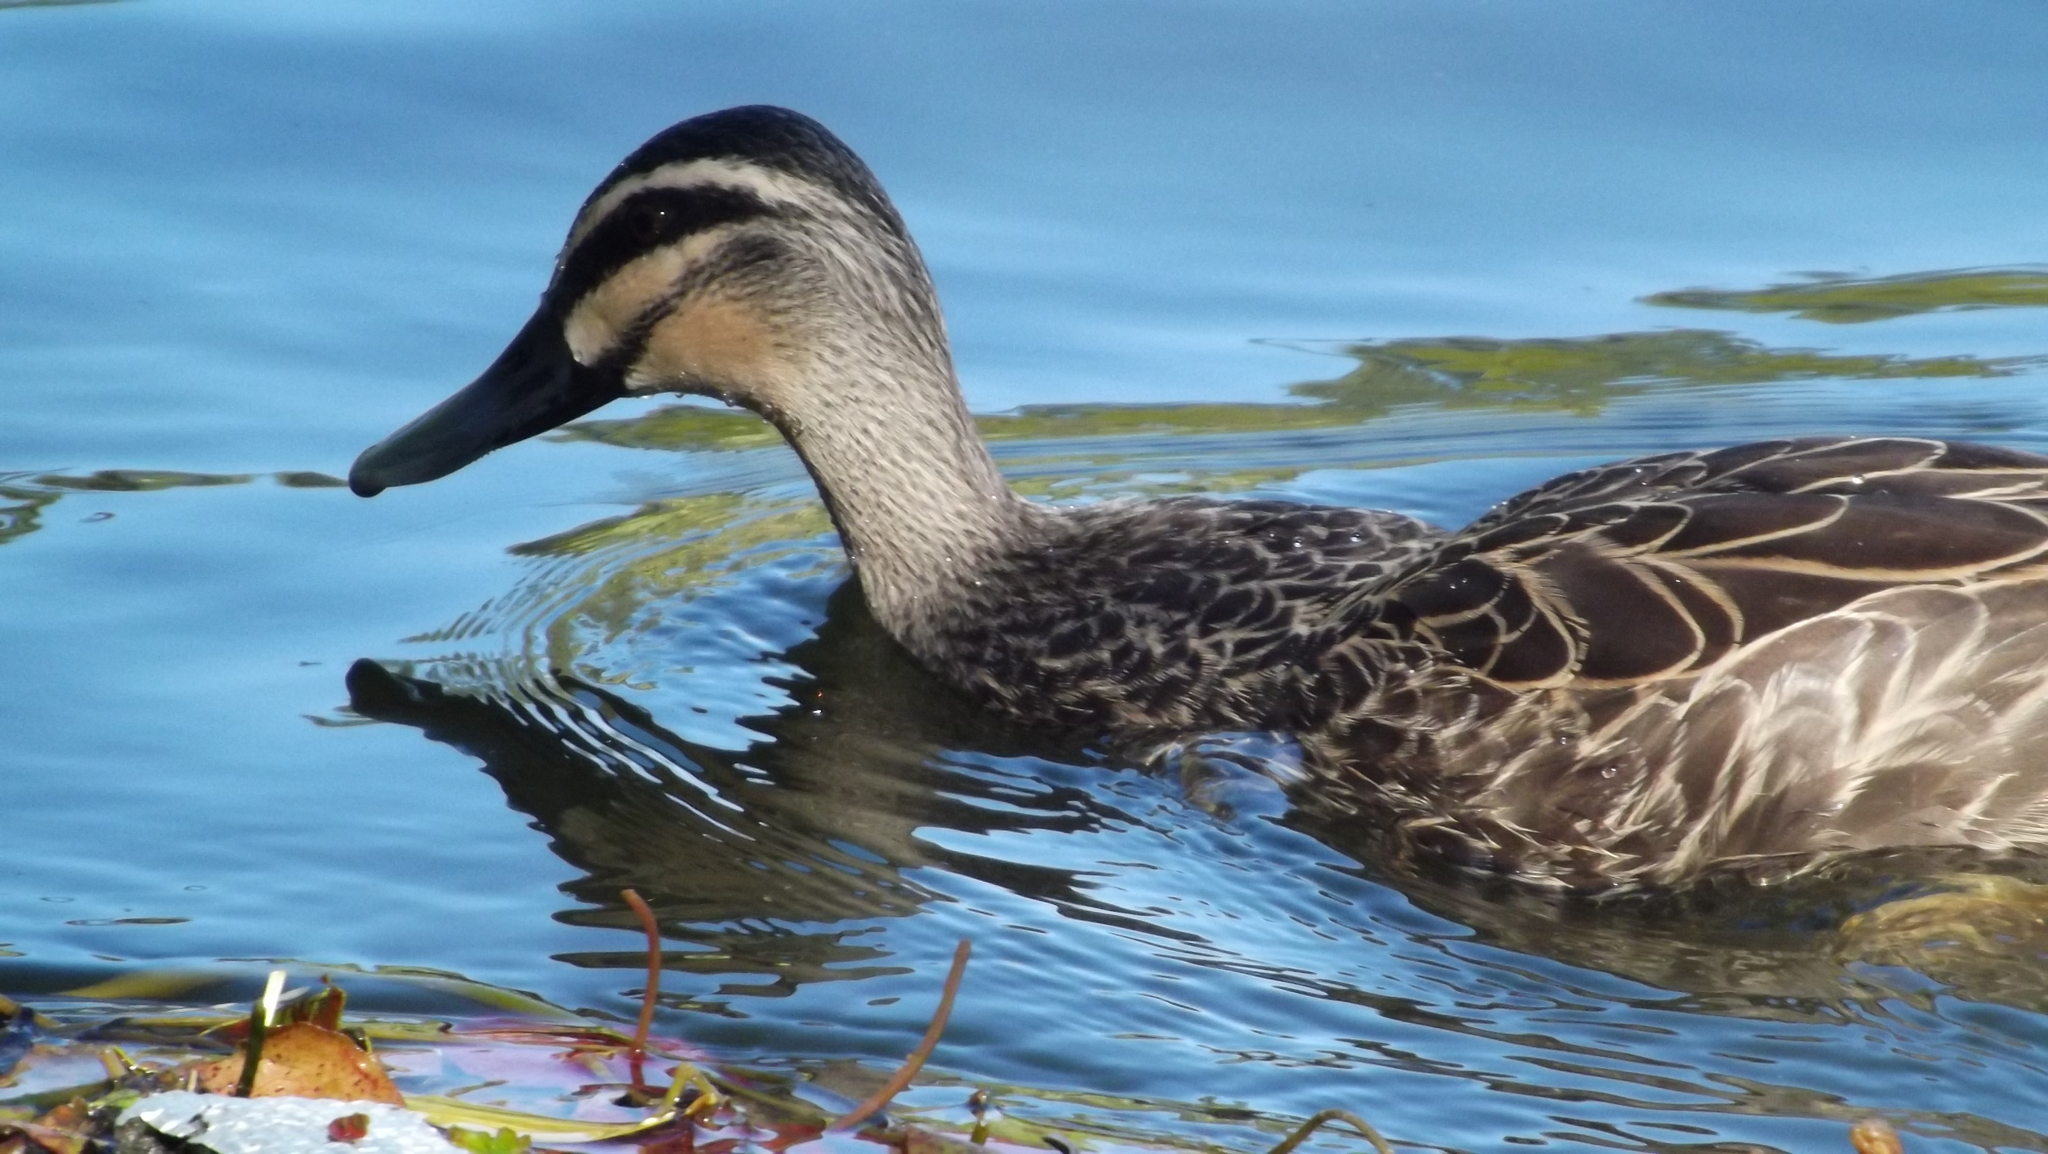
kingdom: Animalia
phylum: Chordata
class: Aves
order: Anseriformes
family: Anatidae
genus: Anas
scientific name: Anas
